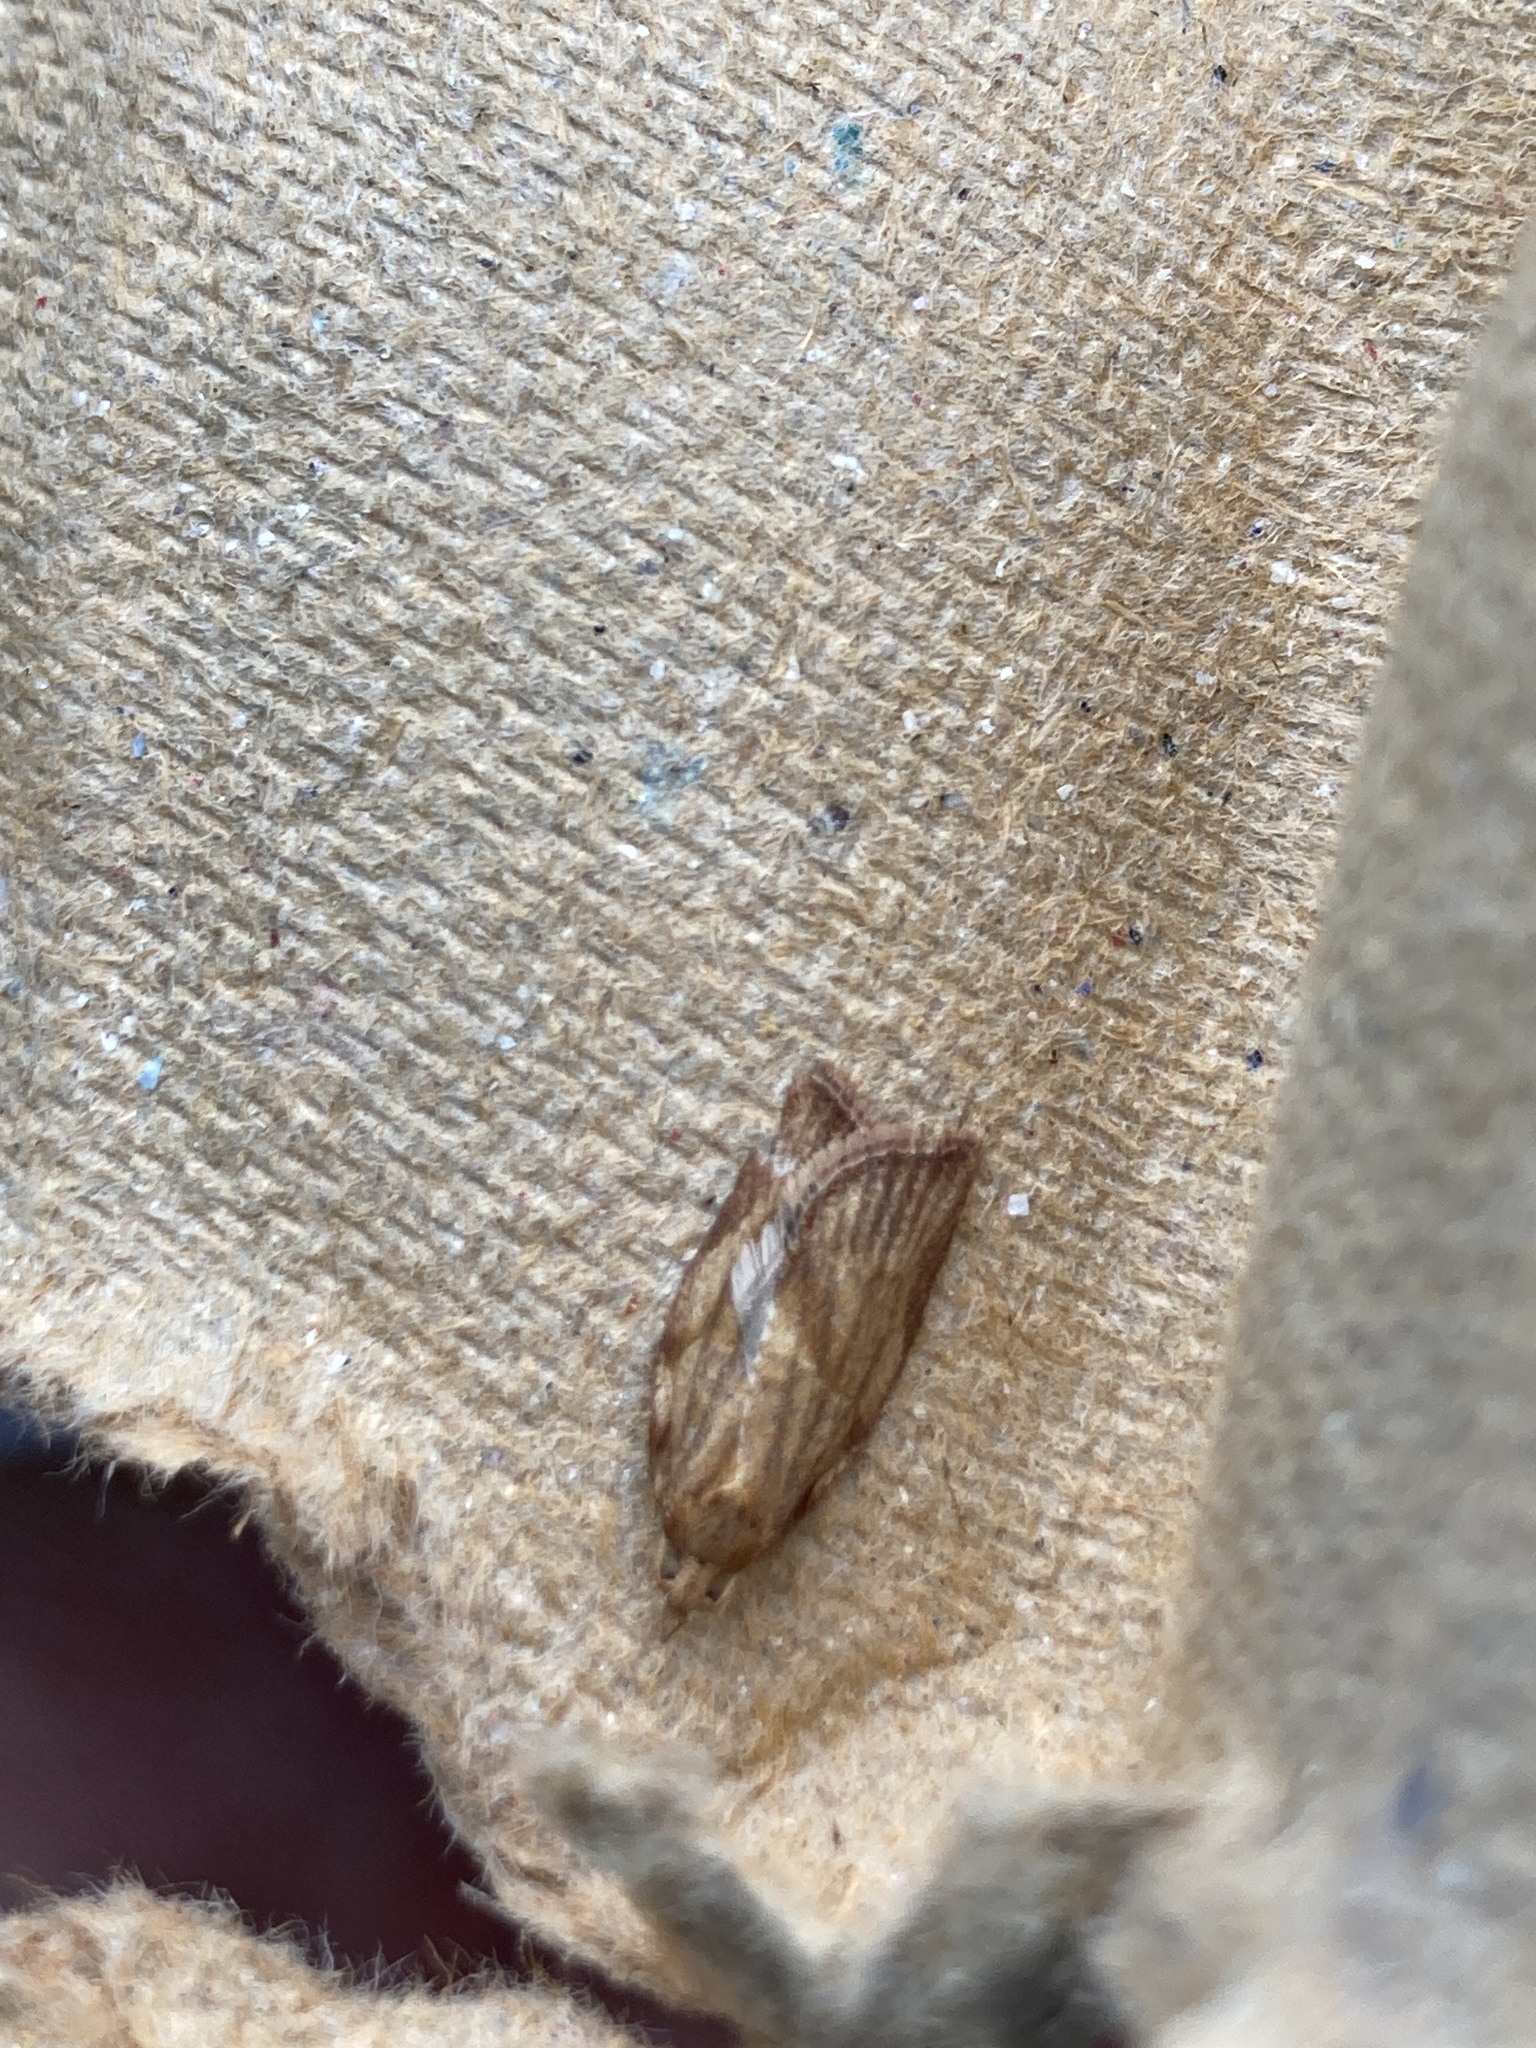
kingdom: Animalia
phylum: Arthropoda
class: Insecta
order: Lepidoptera
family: Tortricidae
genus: Epiphyas
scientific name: Epiphyas postvittana
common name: Light brown apple moth
